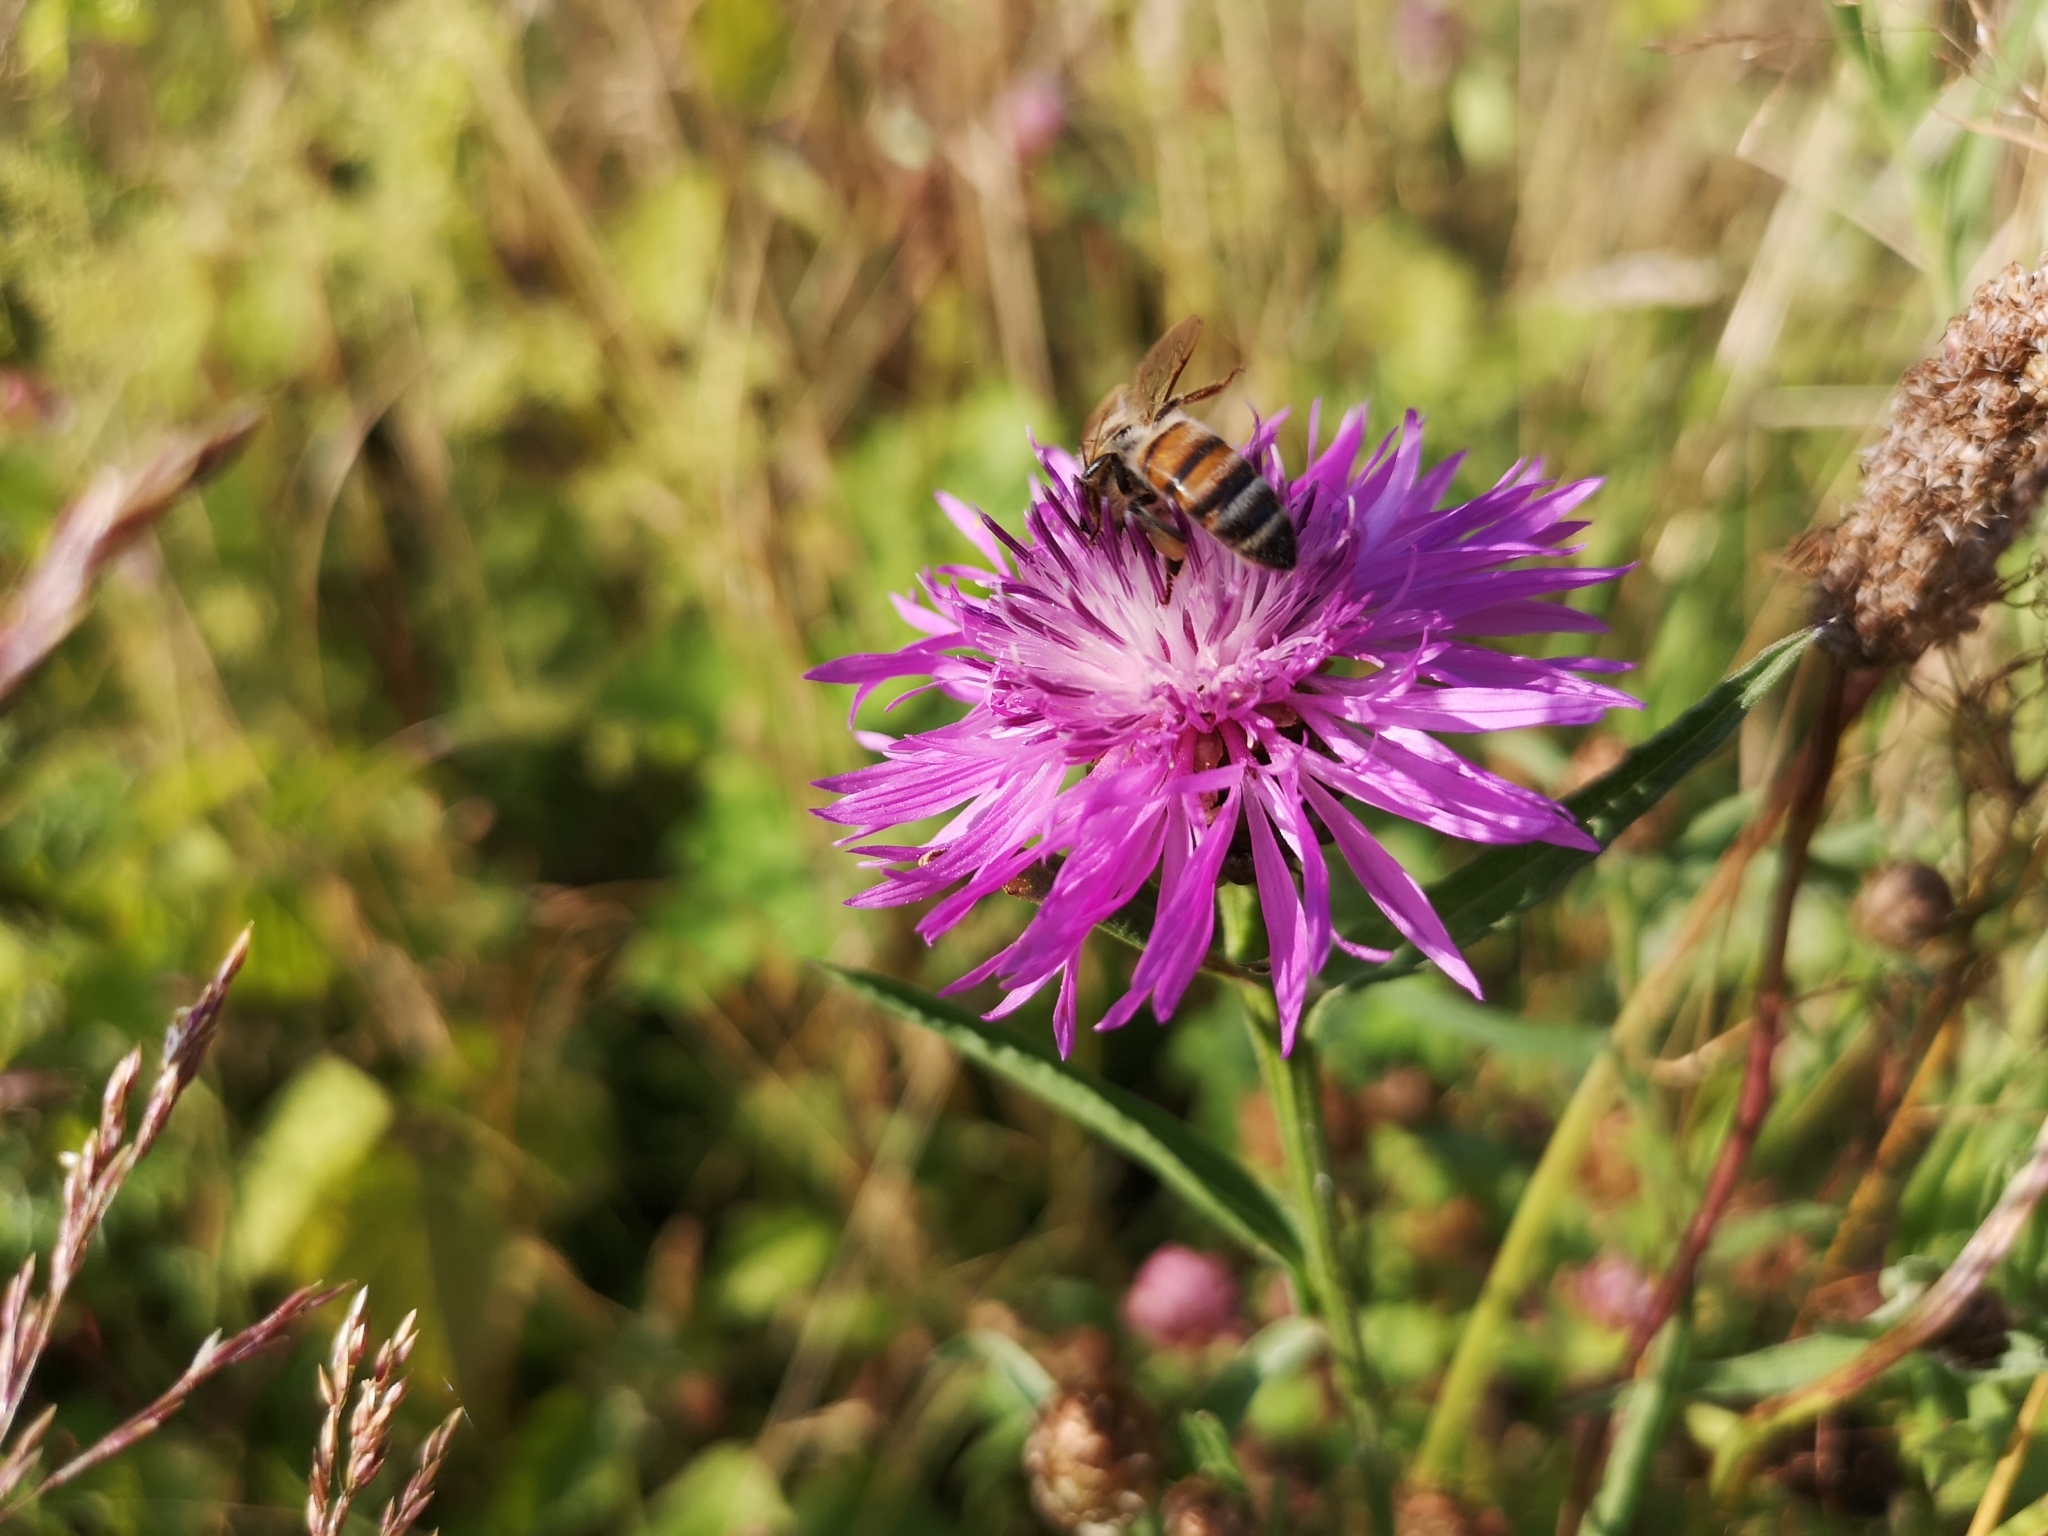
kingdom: Plantae
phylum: Tracheophyta
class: Magnoliopsida
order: Asterales
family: Asteraceae
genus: Centaurea
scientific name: Centaurea jacea
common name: Brown knapweed
